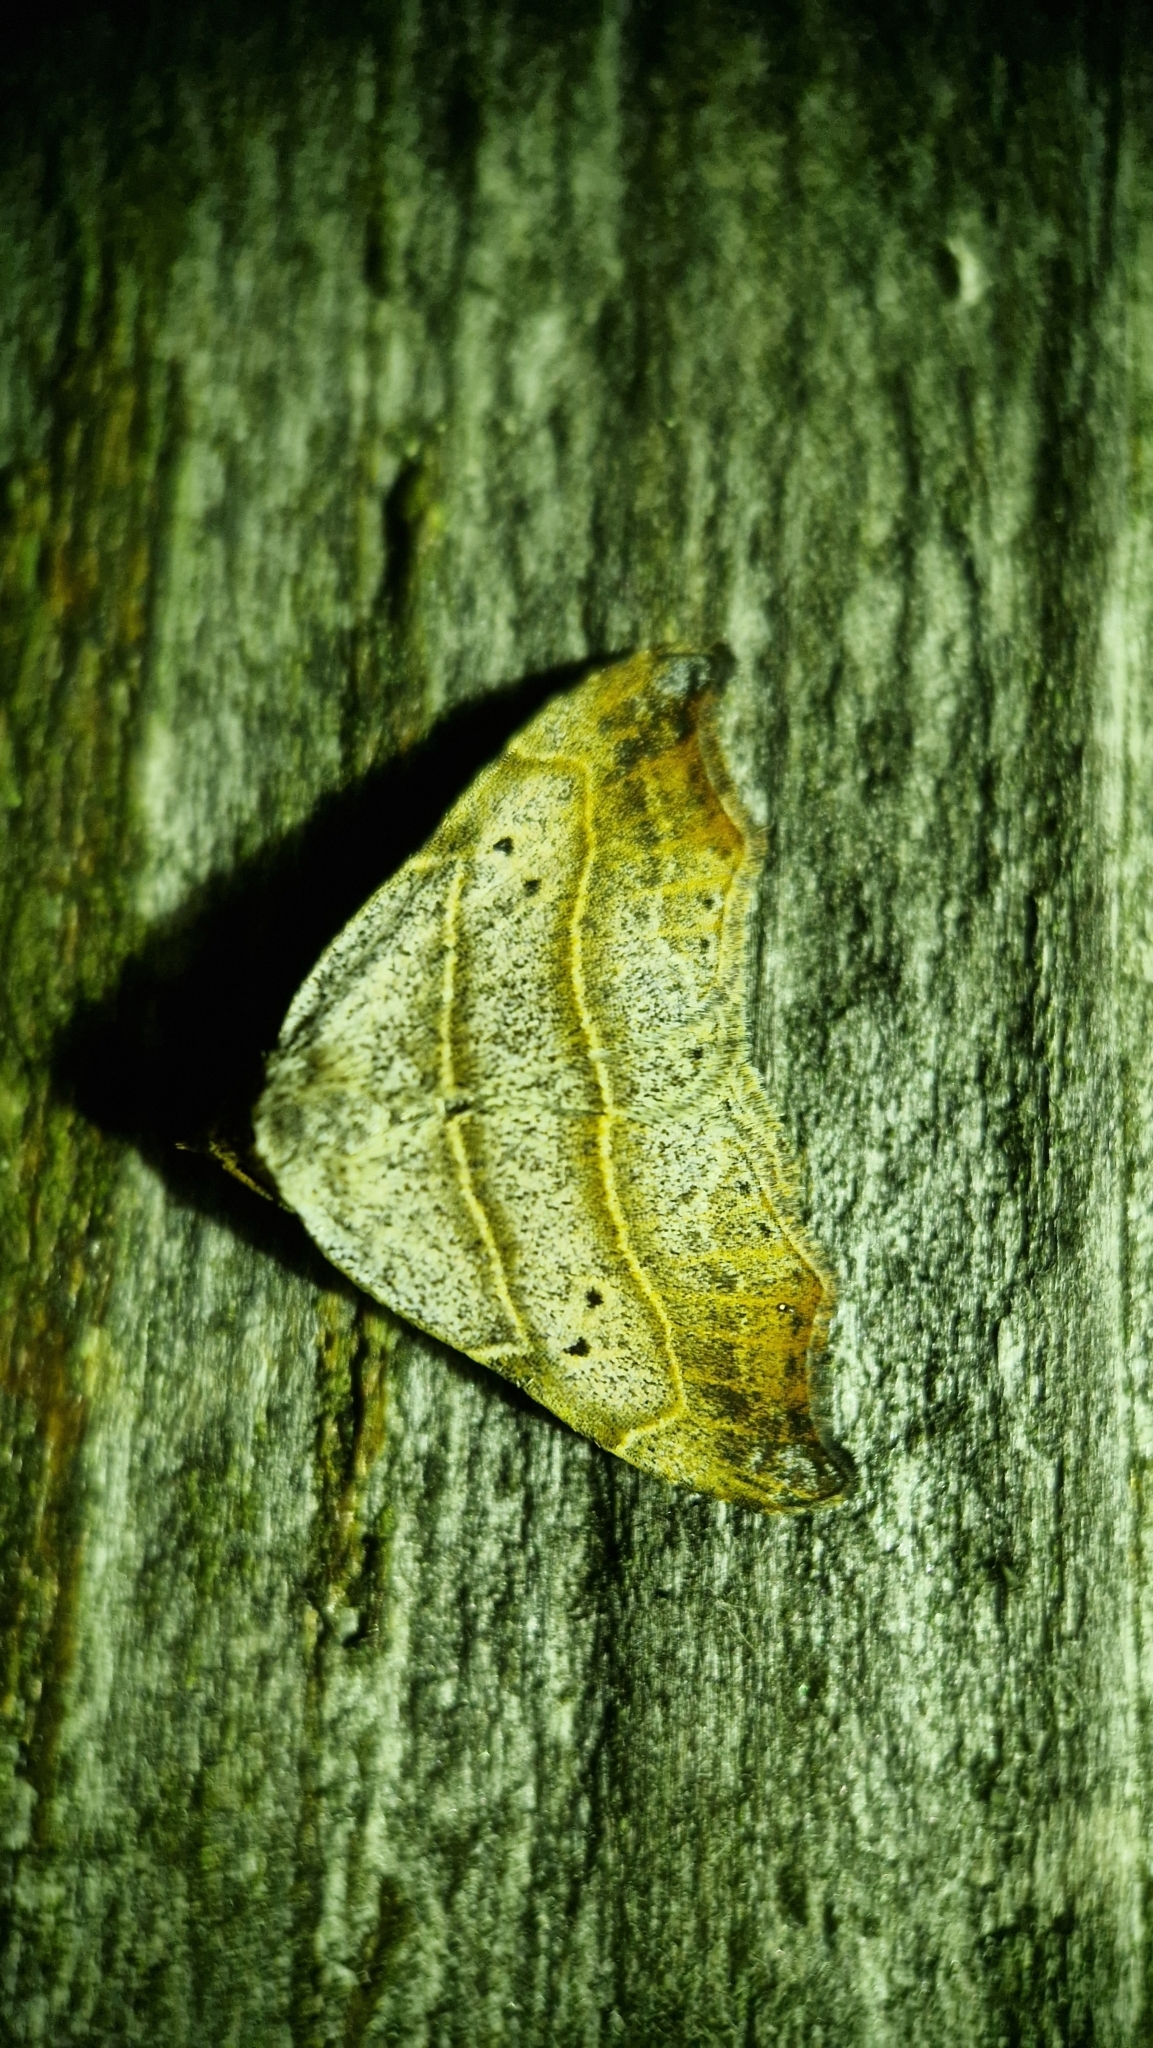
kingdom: Animalia
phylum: Arthropoda
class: Insecta
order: Lepidoptera
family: Erebidae
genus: Laspeyria
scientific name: Laspeyria flexula
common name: Beautiful hook-tip
